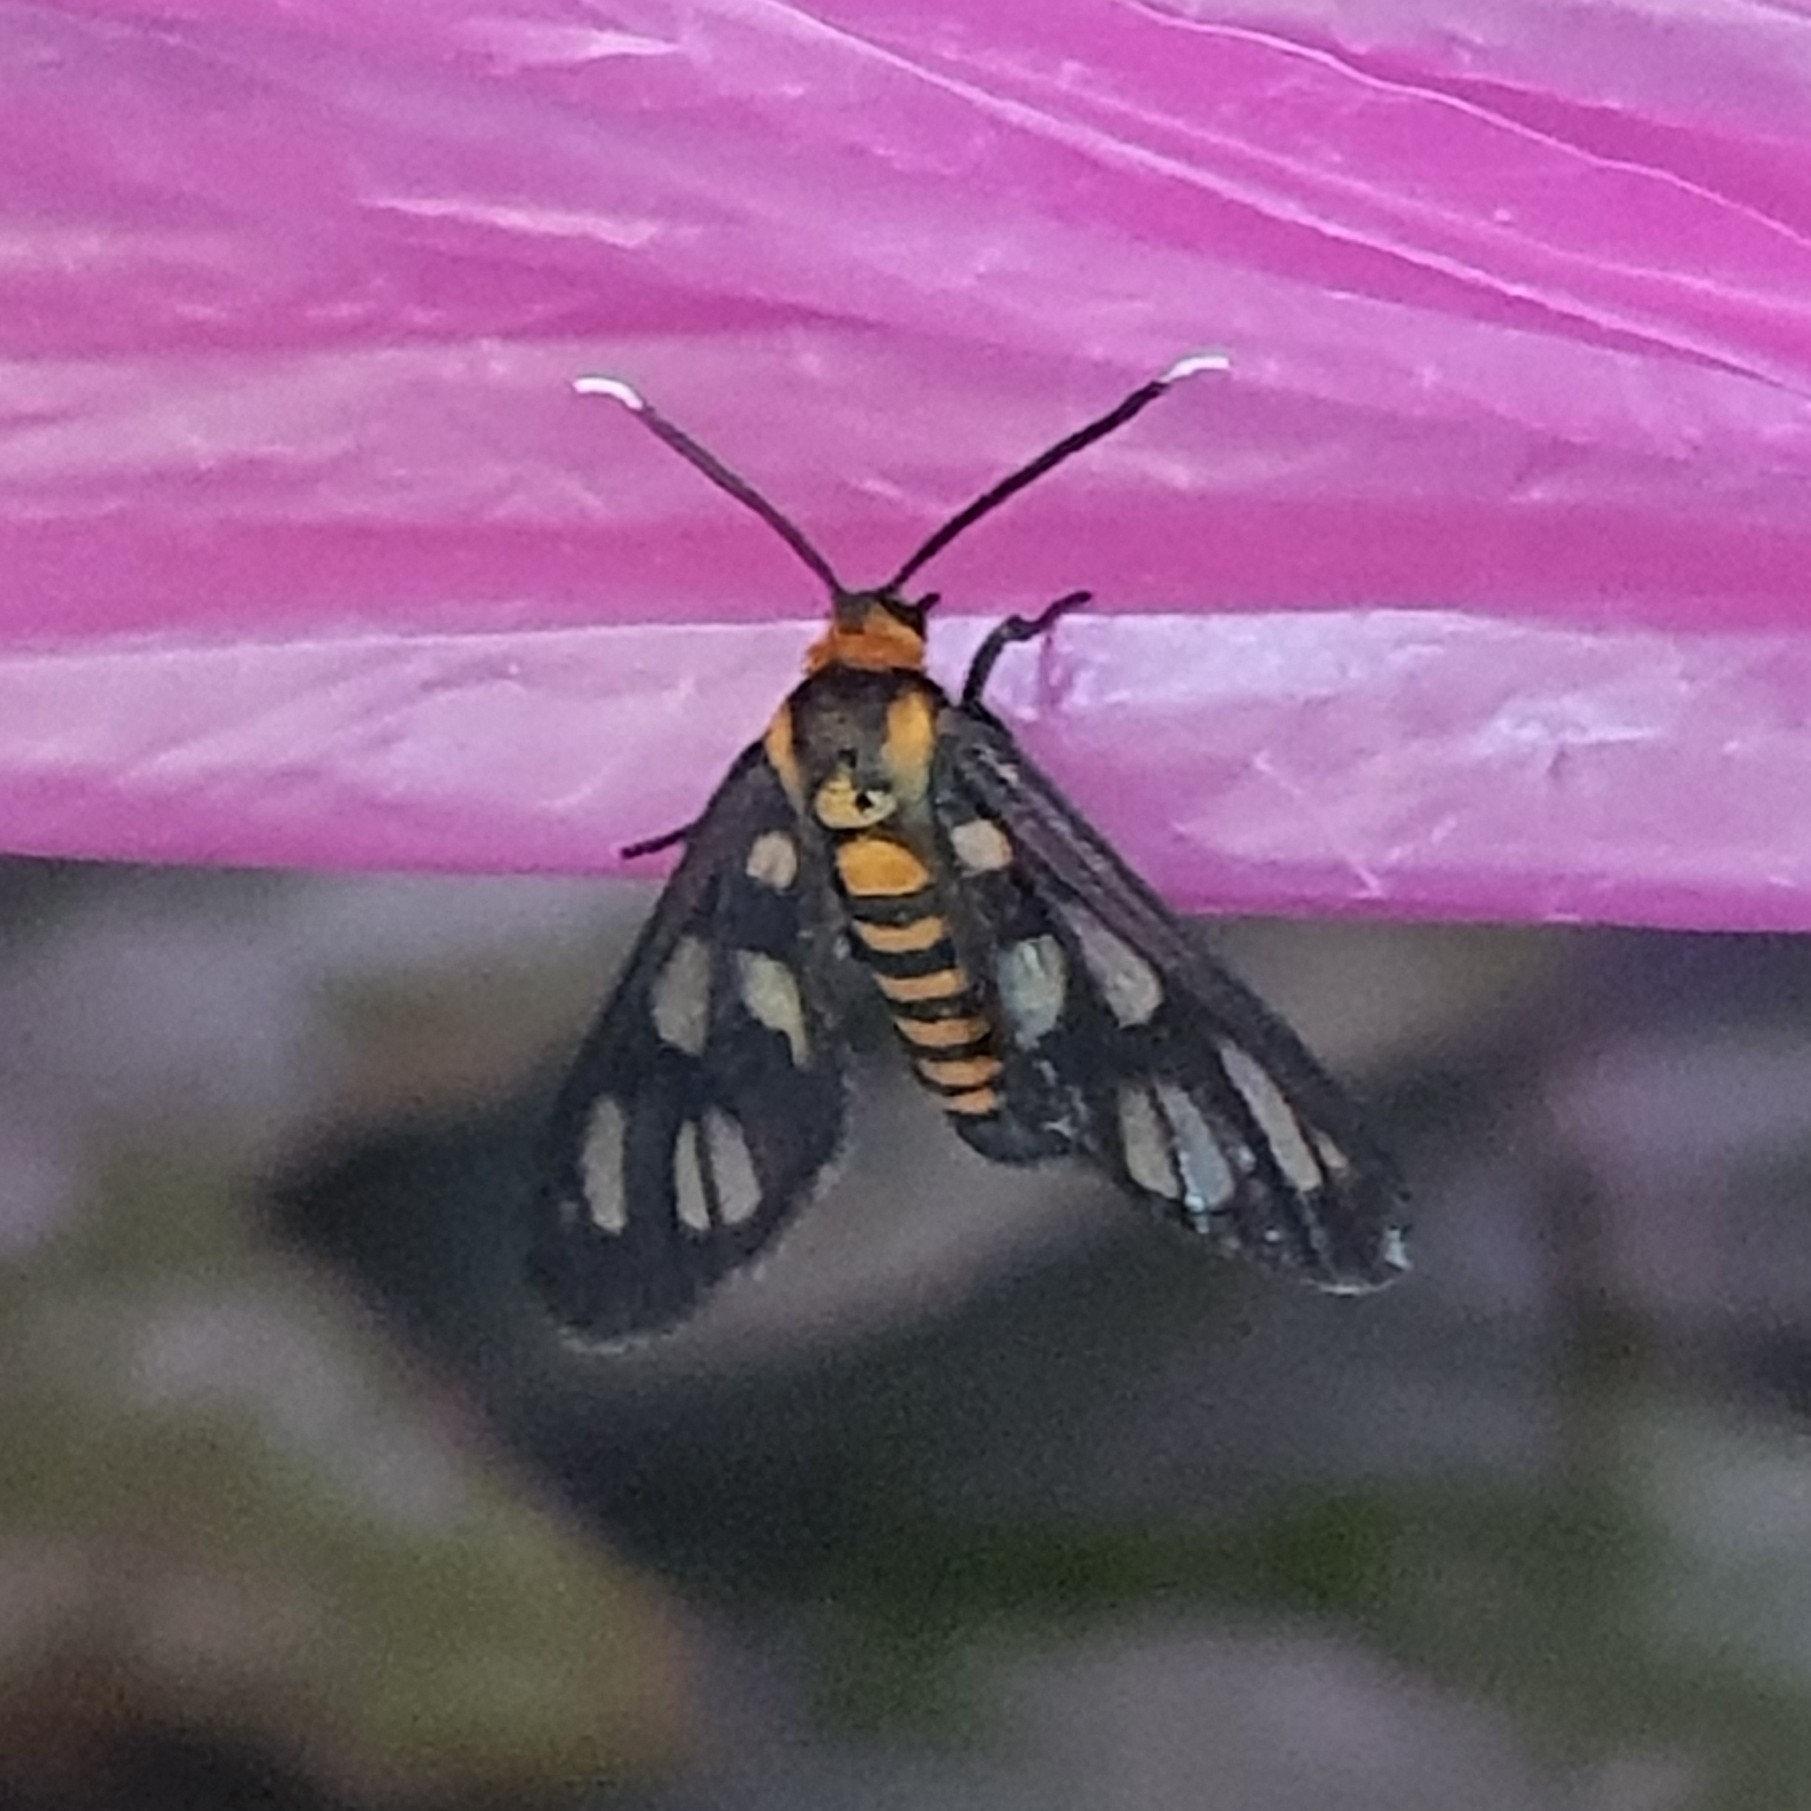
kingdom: Animalia
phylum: Arthropoda
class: Insecta
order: Lepidoptera
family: Erebidae
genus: Amata
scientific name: Amata huebneri
